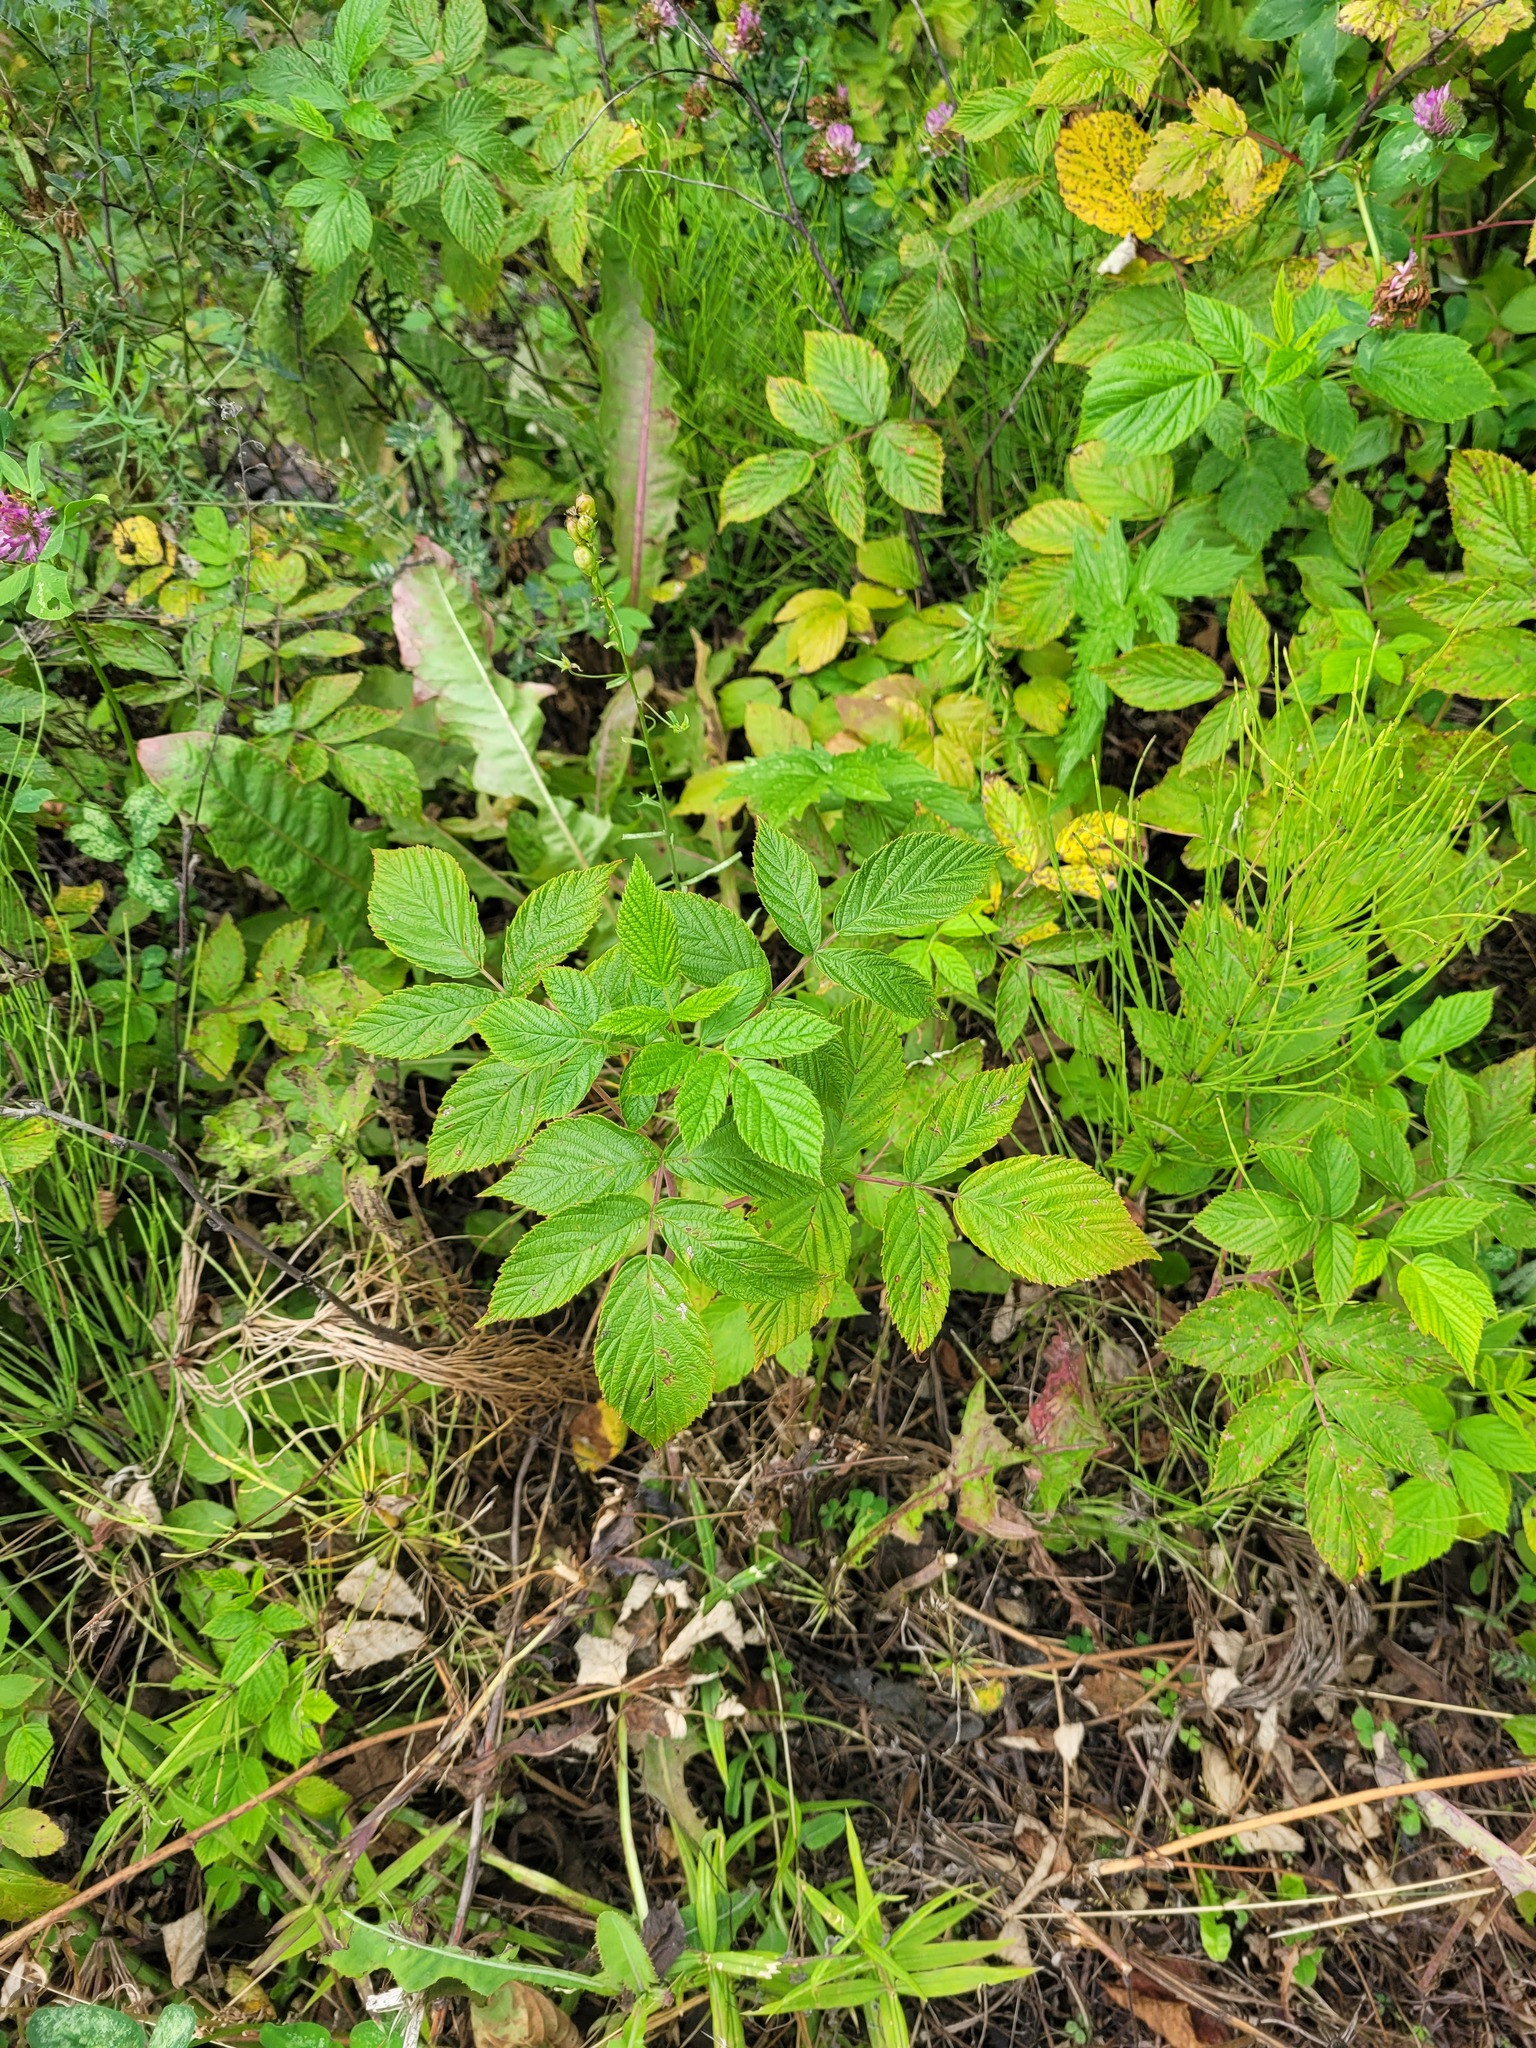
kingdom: Plantae
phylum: Tracheophyta
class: Magnoliopsida
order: Rosales
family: Rosaceae
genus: Rubus
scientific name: Rubus idaeus
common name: Raspberry
